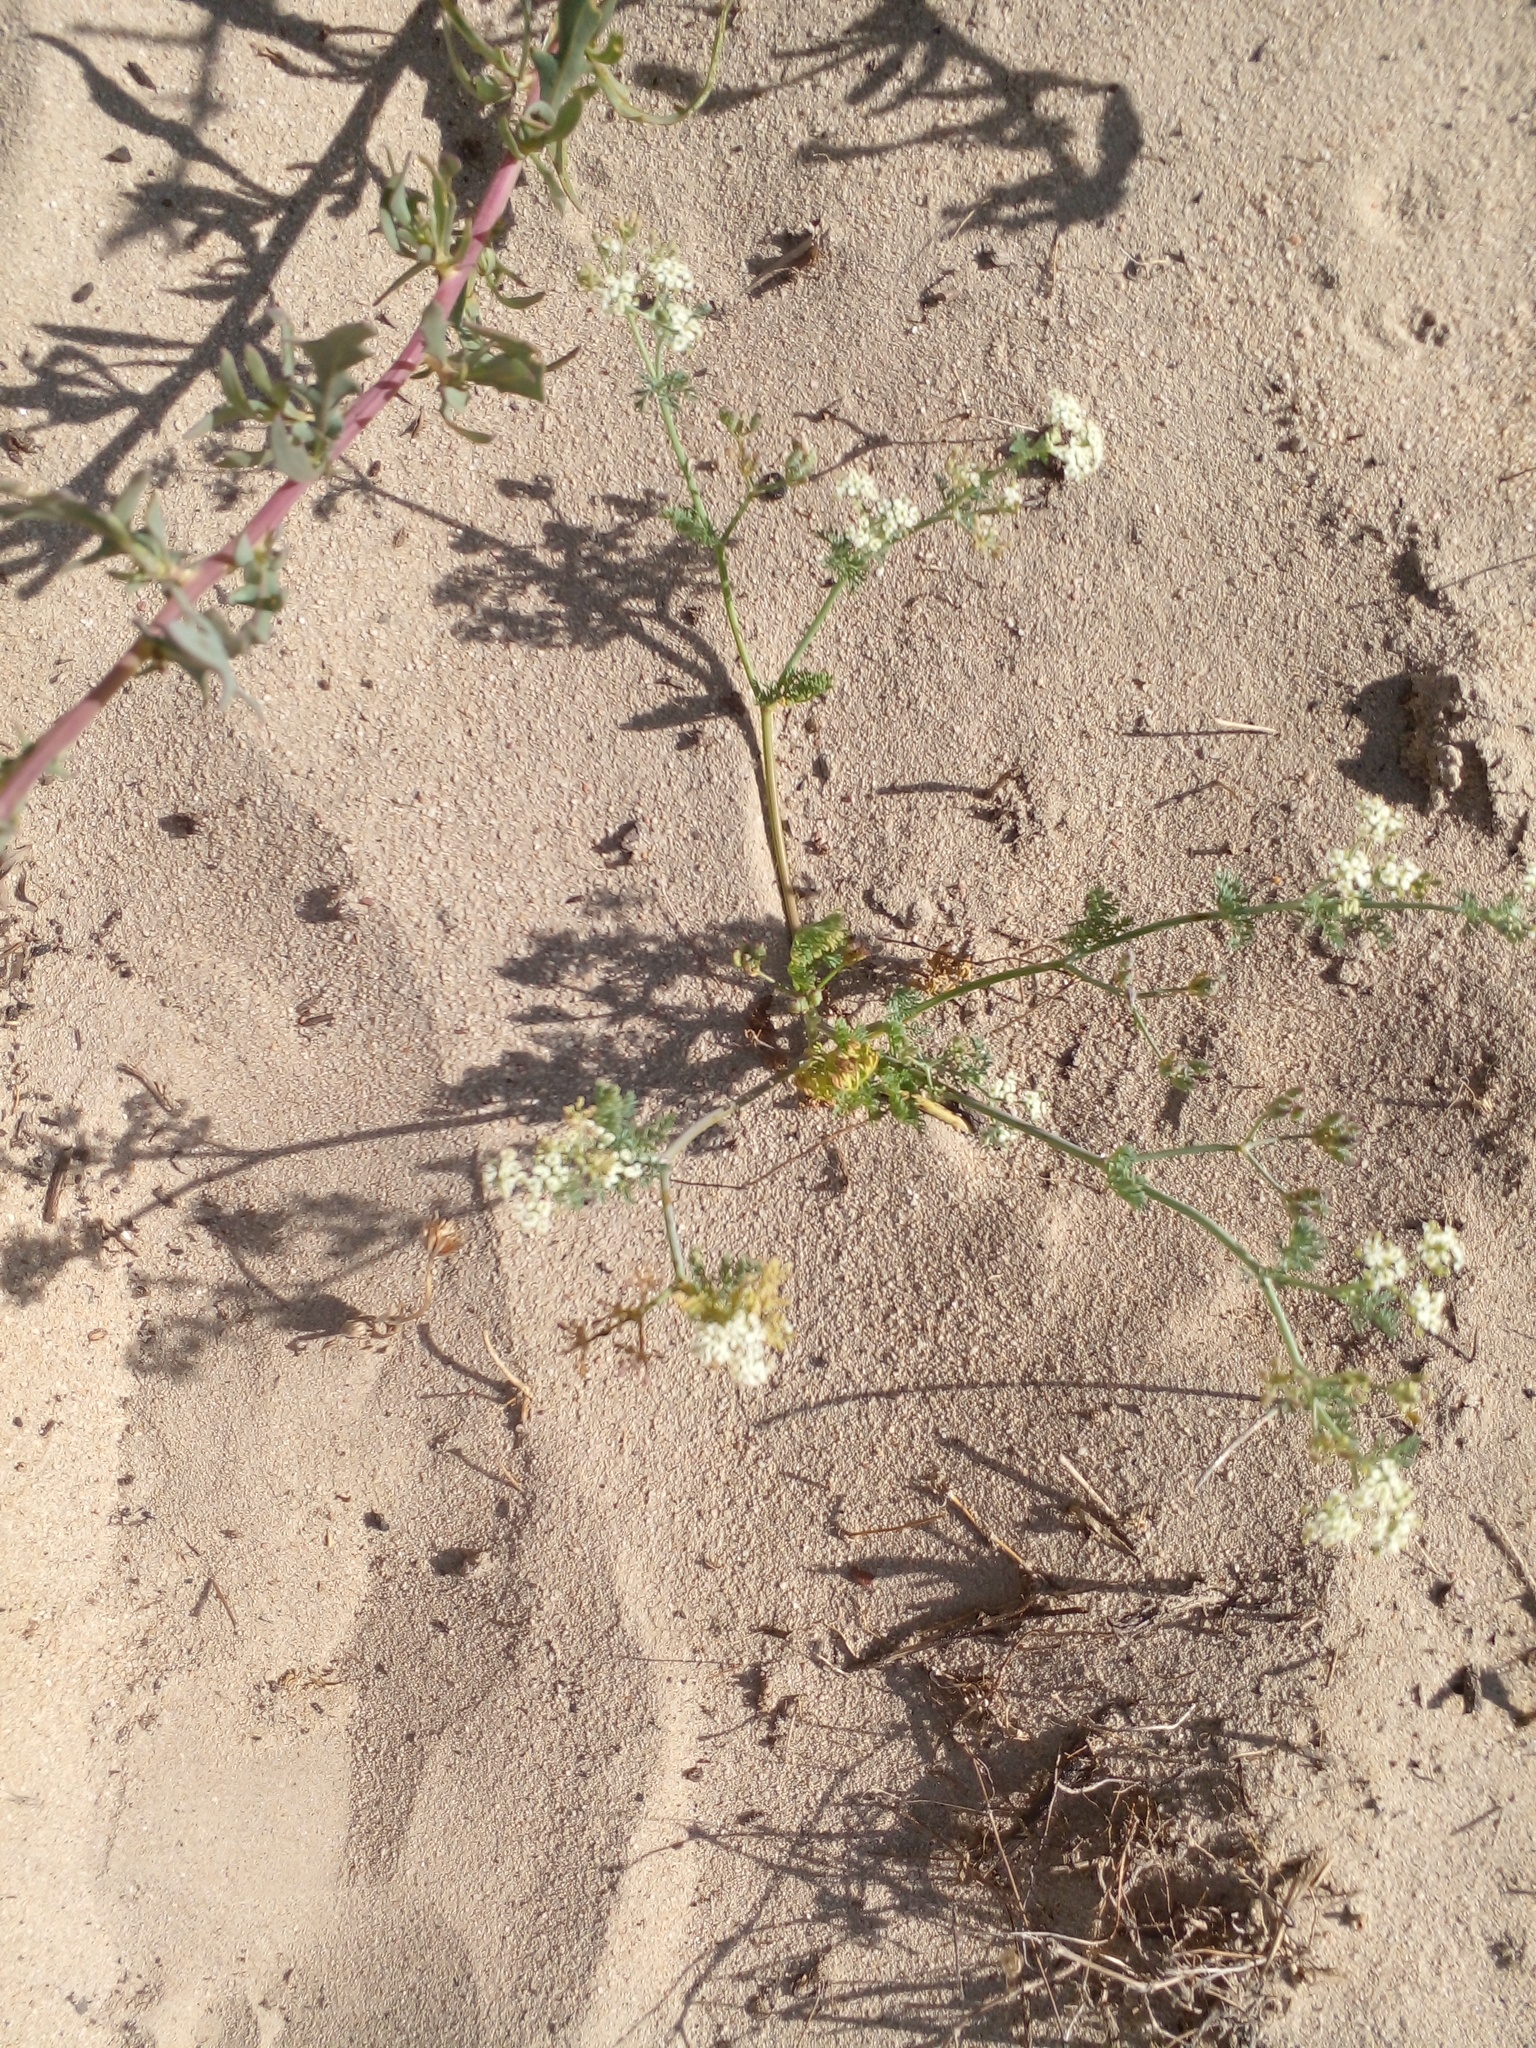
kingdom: Plantae
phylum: Tracheophyta
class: Magnoliopsida
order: Apiales
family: Apiaceae
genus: Capnophyllum
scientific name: Capnophyllum africanum
